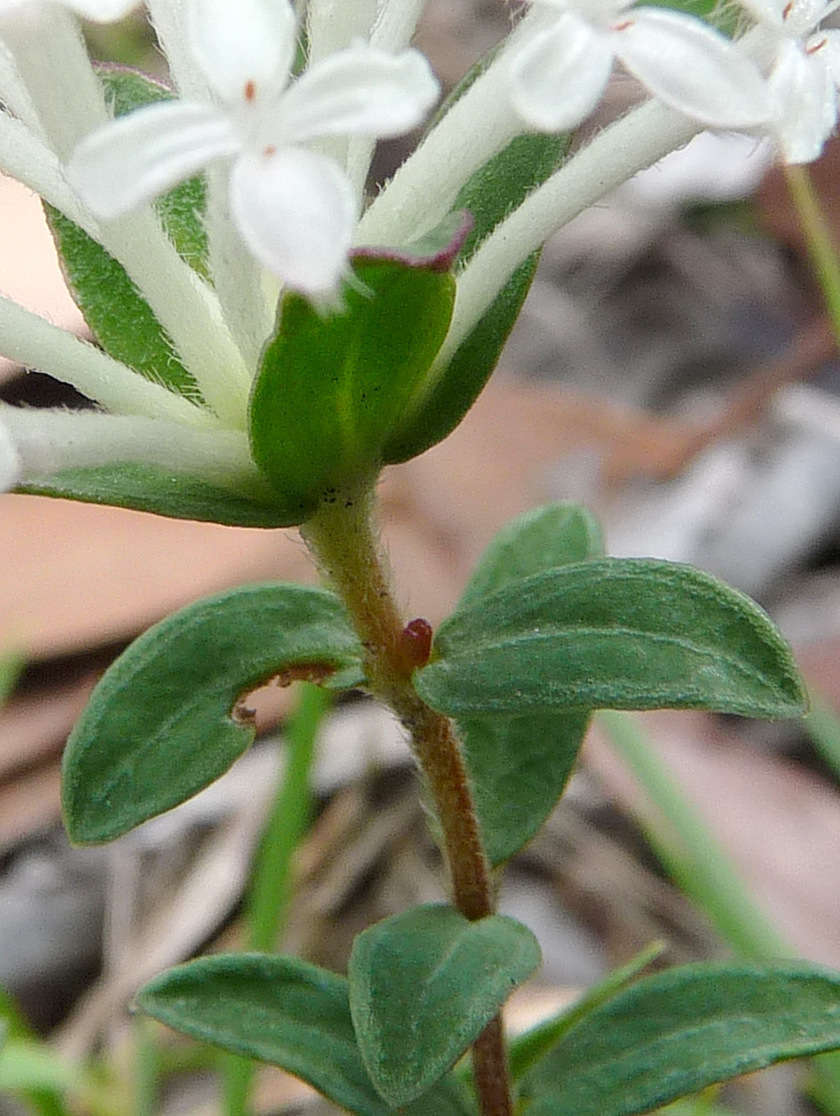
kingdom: Plantae
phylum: Tracheophyta
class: Magnoliopsida
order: Malvales
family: Thymelaeaceae
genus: Pimelea
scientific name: Pimelea humilis
